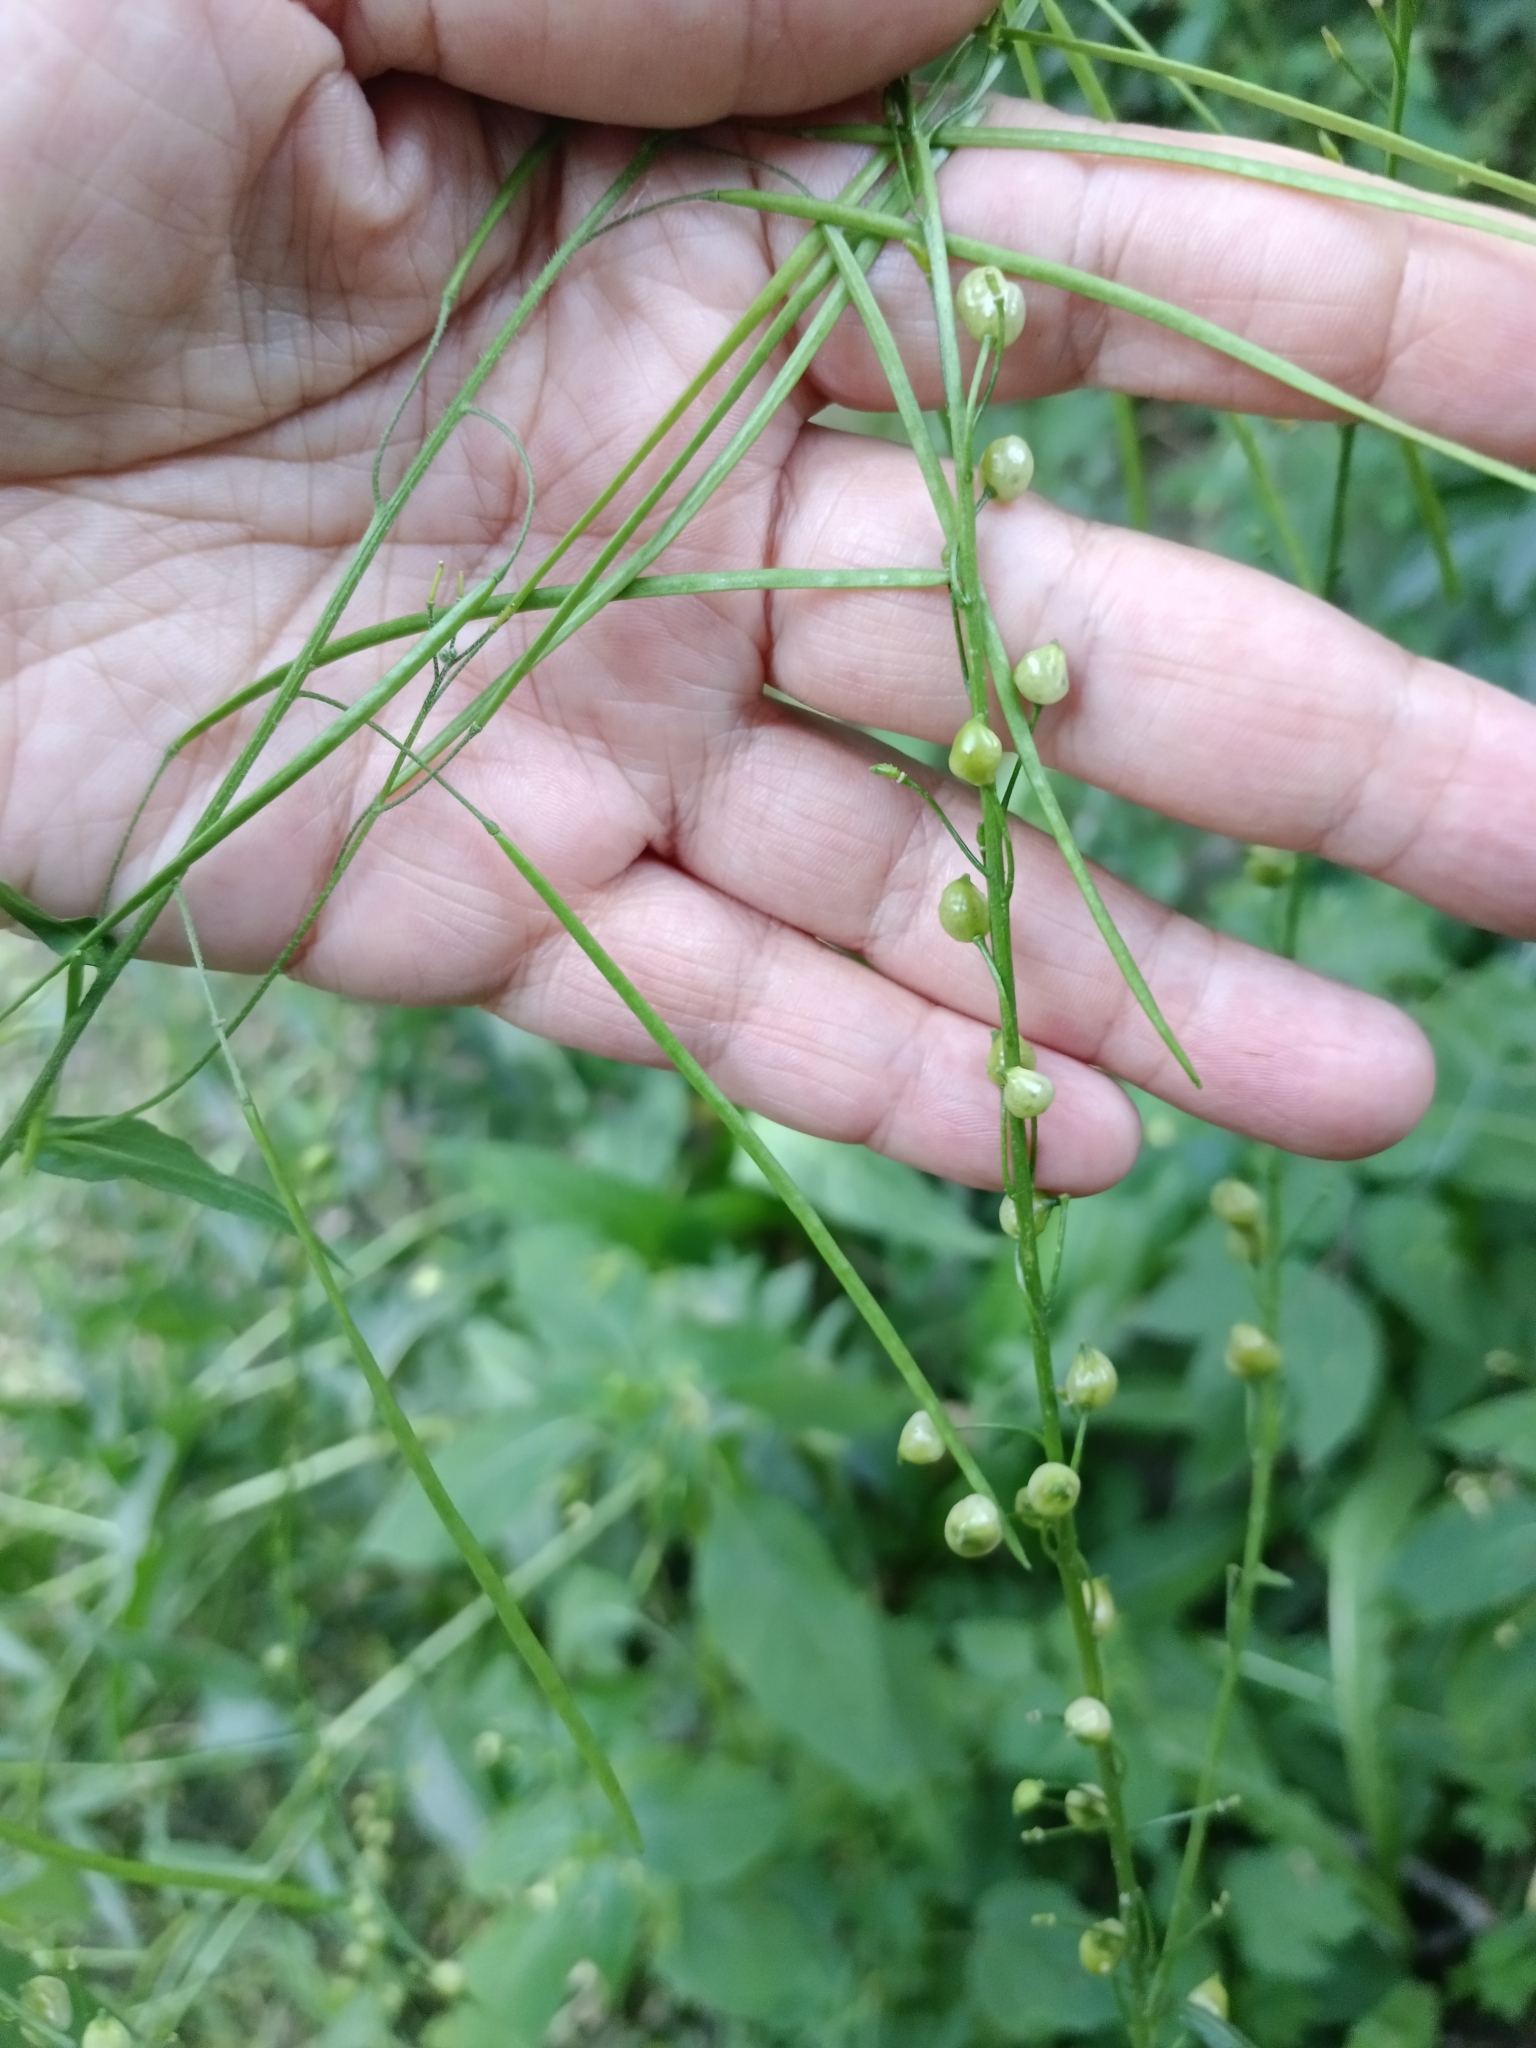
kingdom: Plantae
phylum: Tracheophyta
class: Magnoliopsida
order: Brassicales
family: Brassicaceae
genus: Bunias
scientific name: Bunias orientalis
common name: Warty-cabbage
